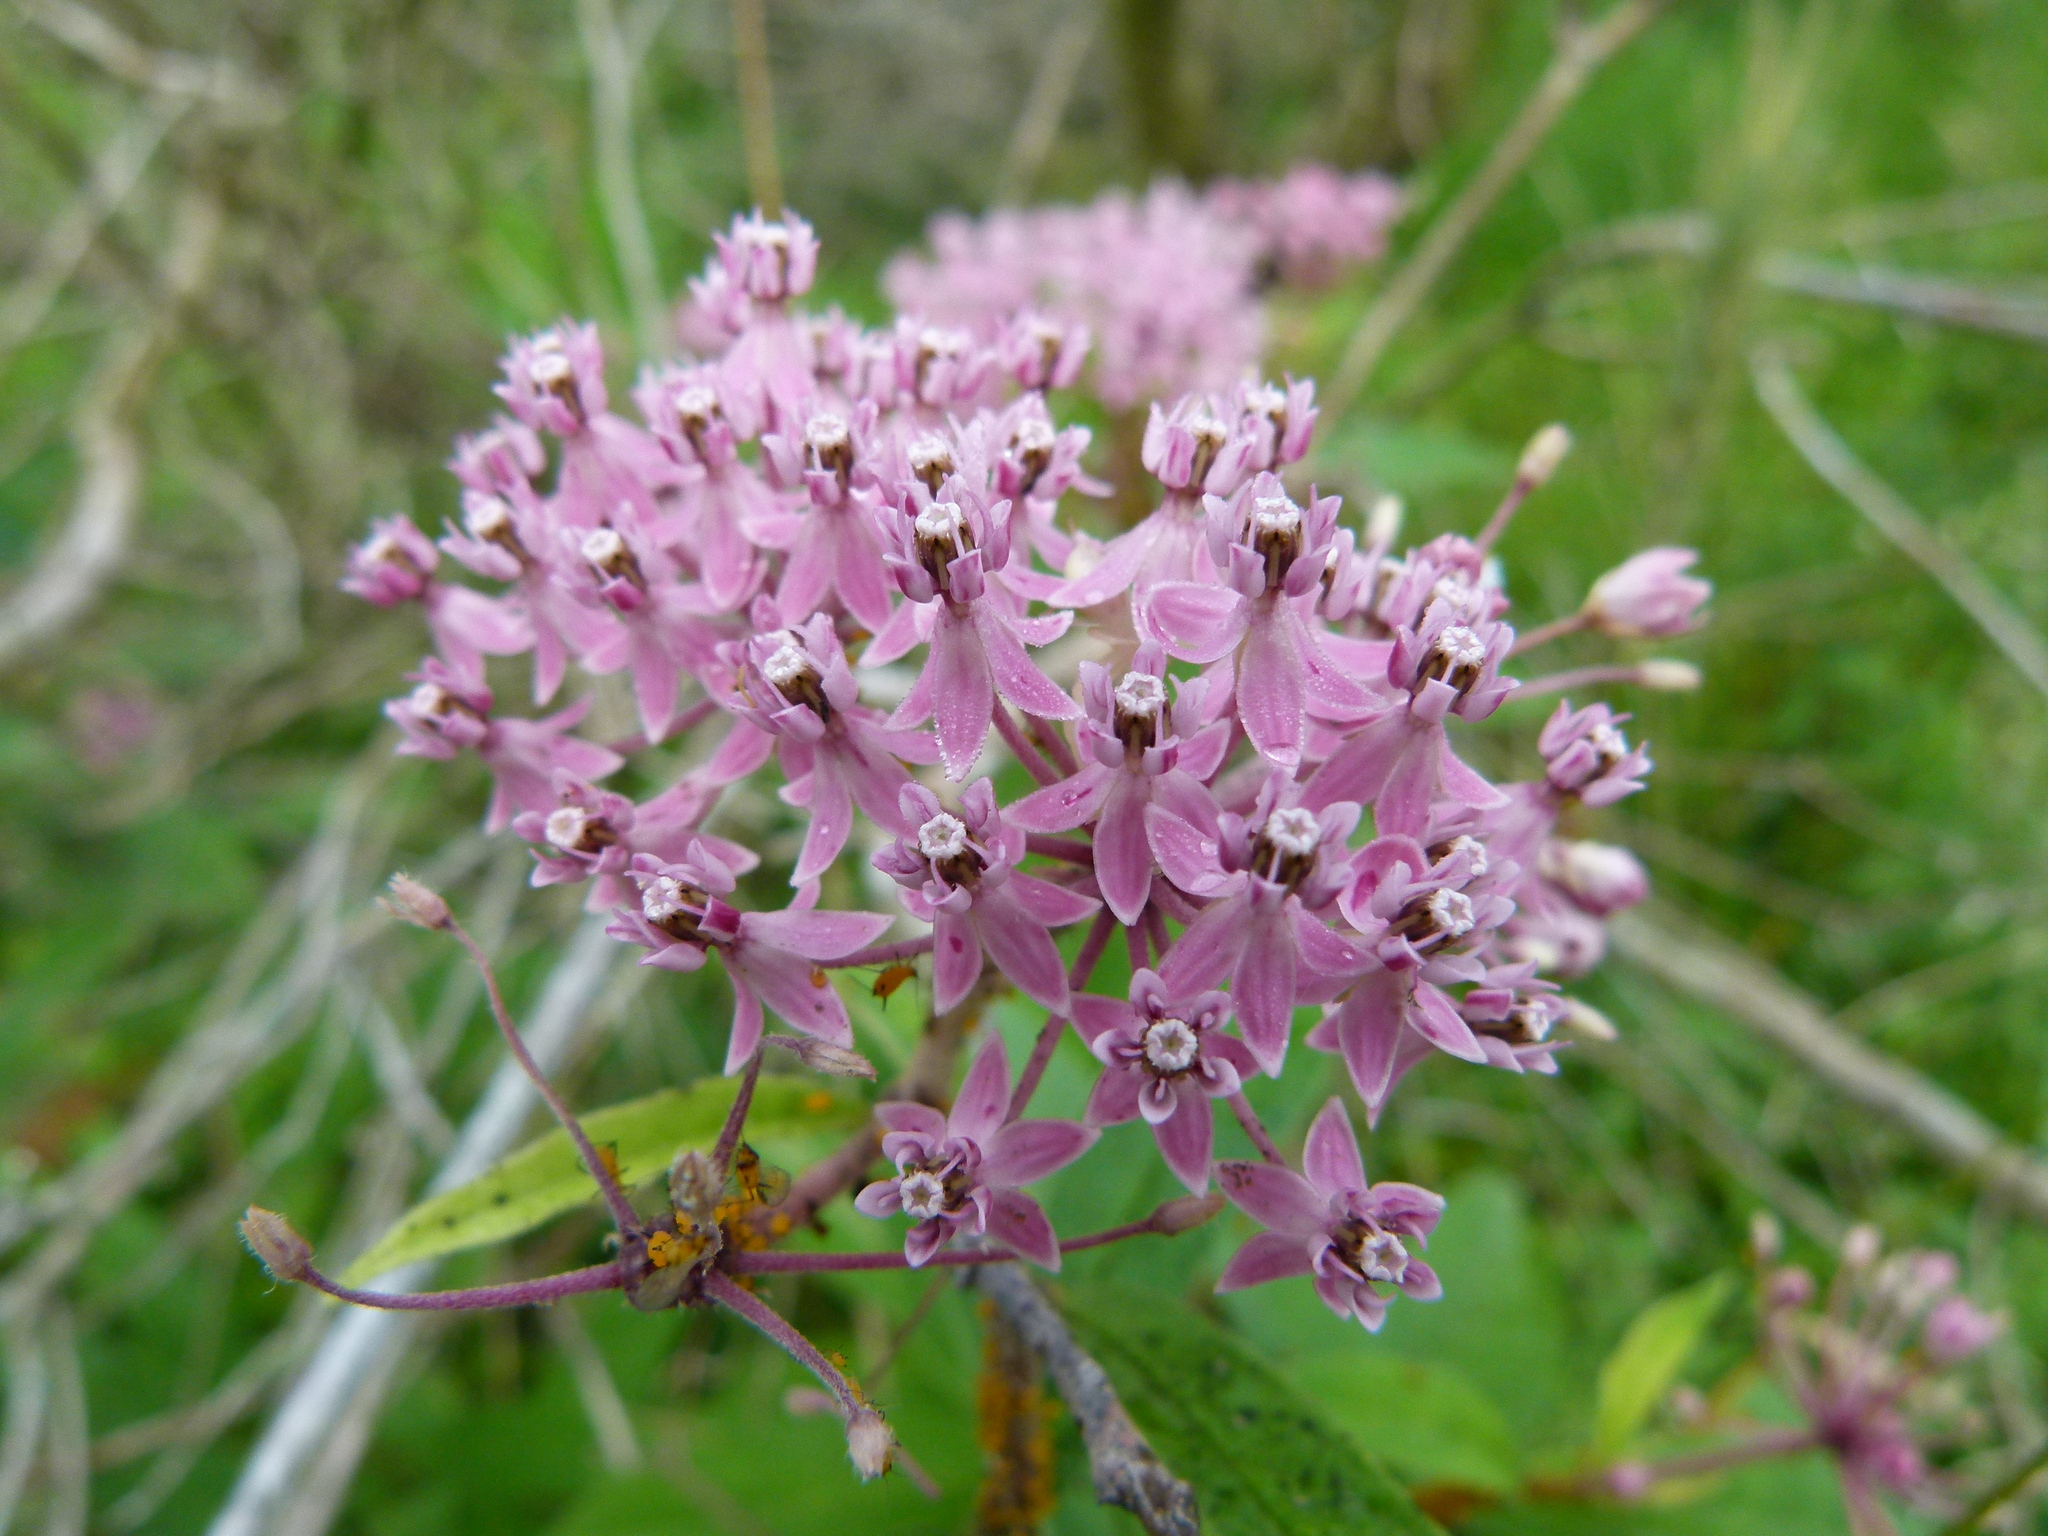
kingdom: Plantae
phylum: Tracheophyta
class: Magnoliopsida
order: Gentianales
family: Apocynaceae
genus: Asclepias
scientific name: Asclepias incarnata
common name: Swamp milkweed
